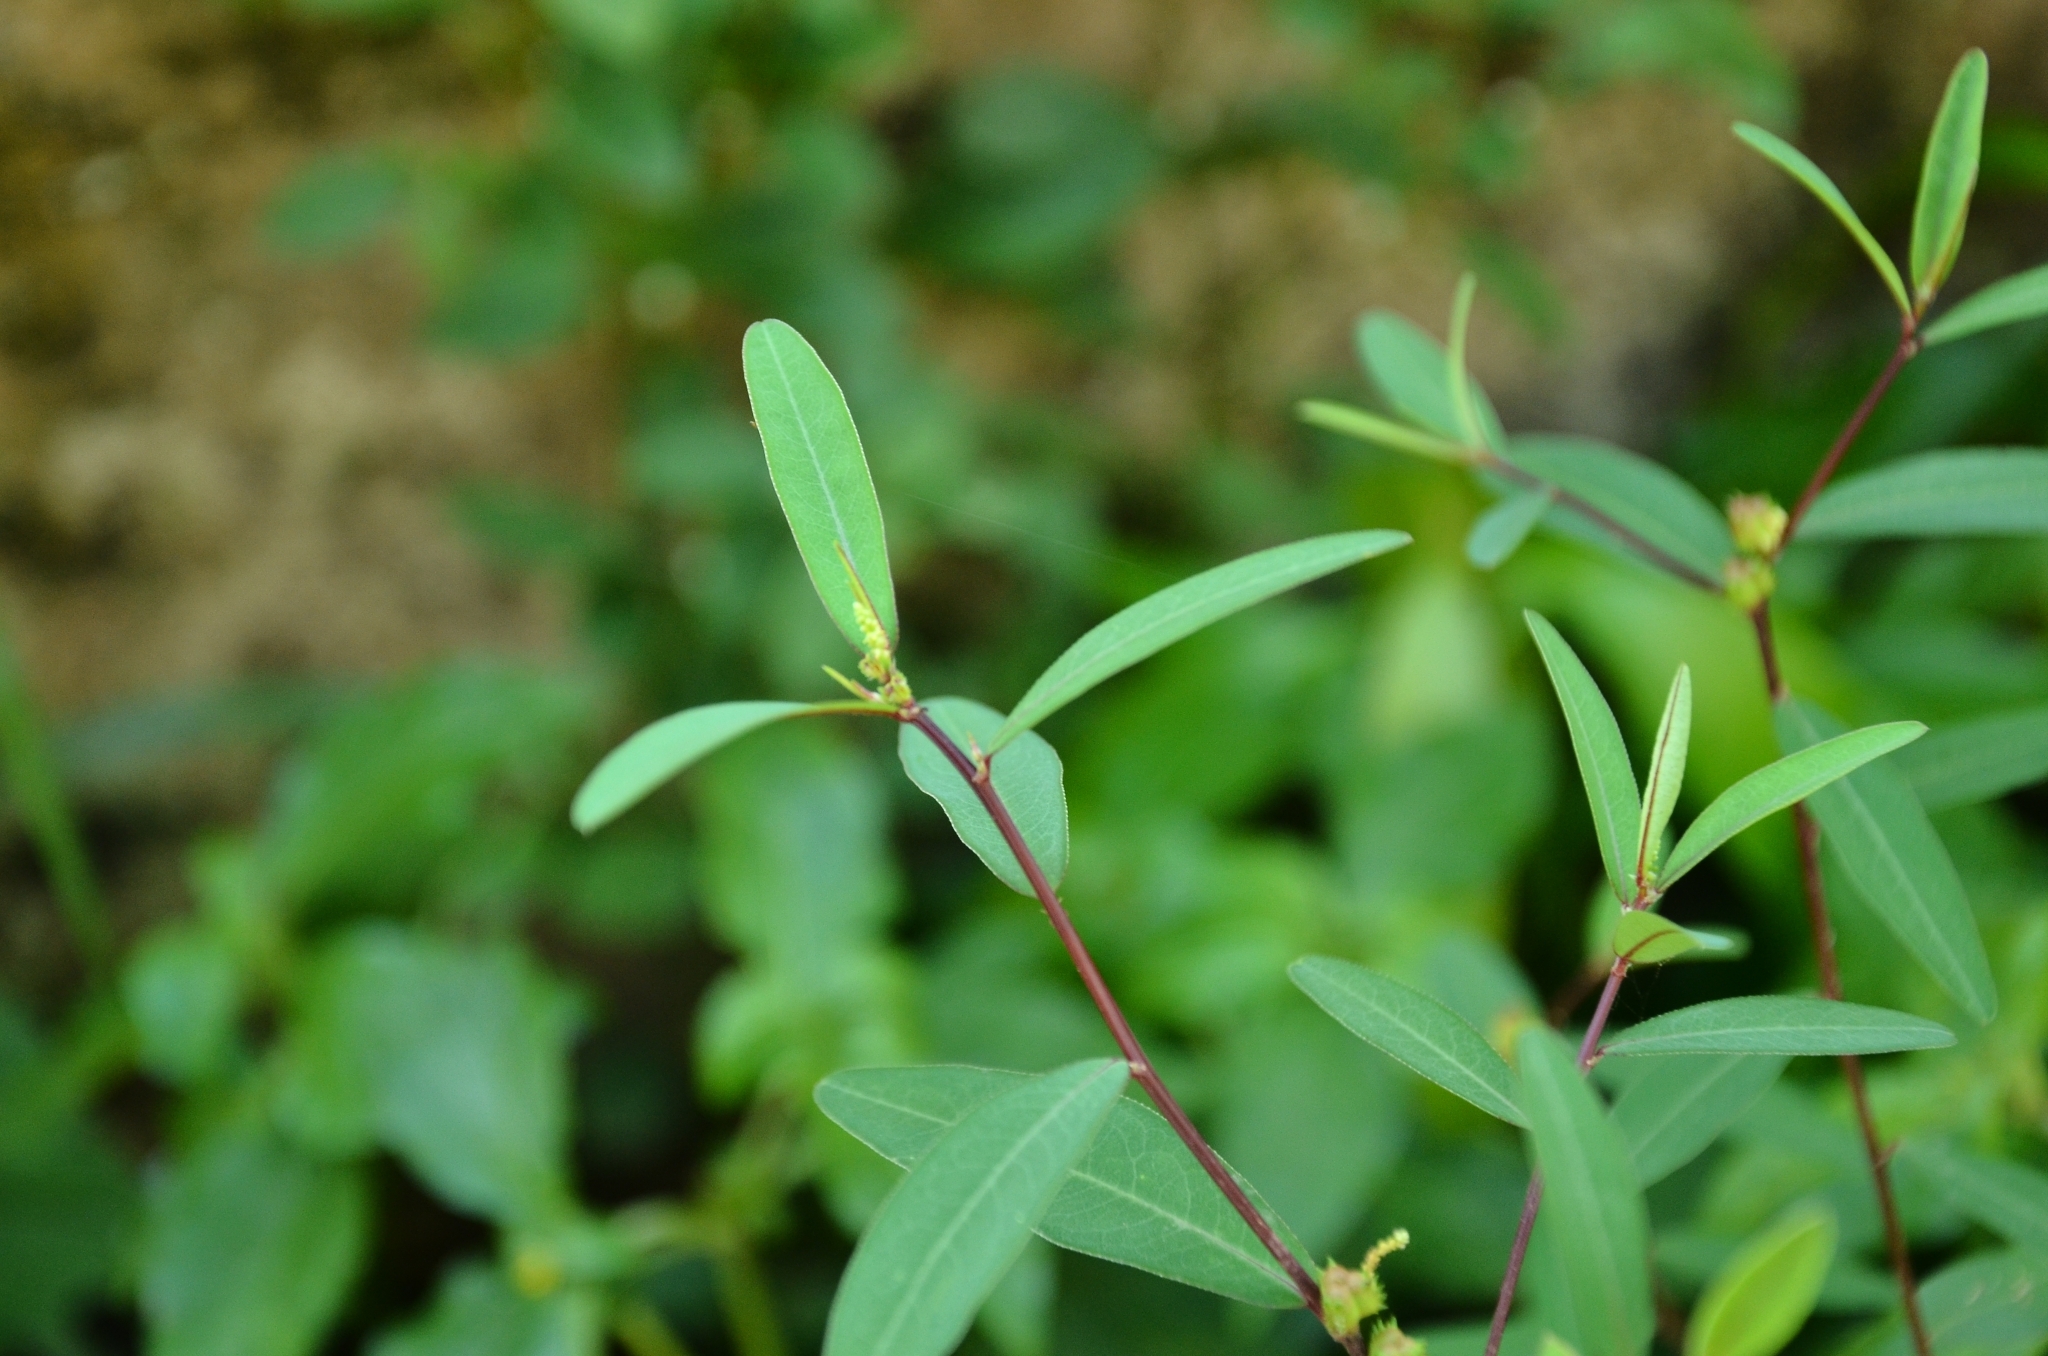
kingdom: Plantae
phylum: Tracheophyta
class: Magnoliopsida
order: Malpighiales
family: Euphorbiaceae
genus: Microstachys
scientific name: Microstachys chamaelea
